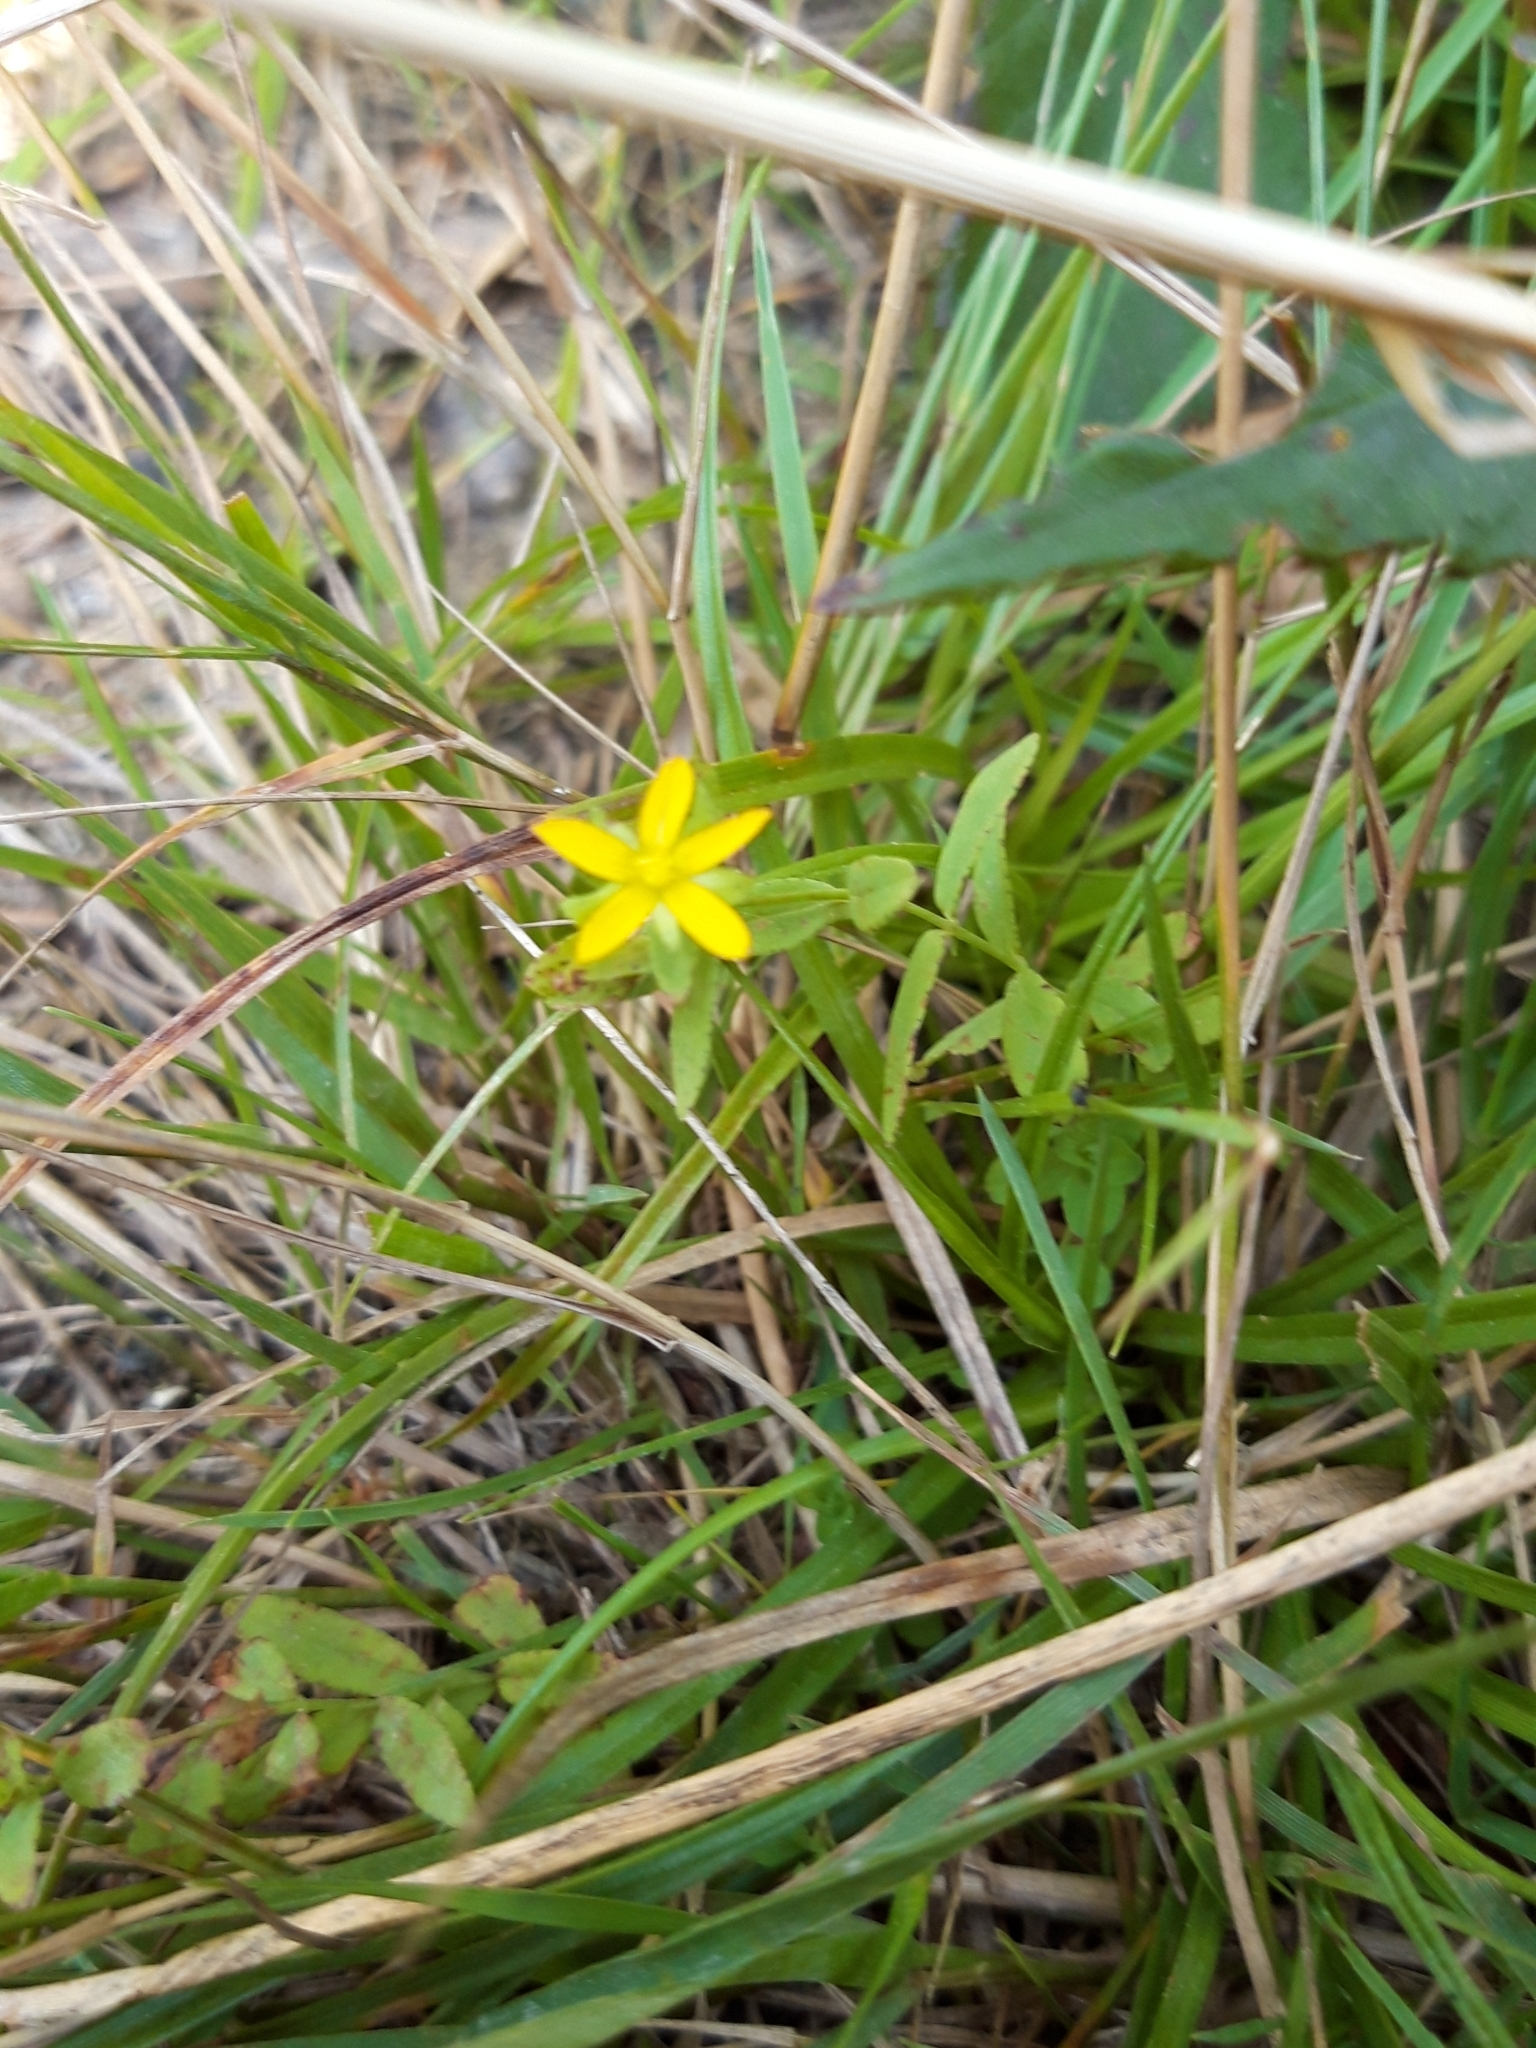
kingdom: Plantae
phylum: Tracheophyta
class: Magnoliopsida
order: Malpighiales
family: Hypericaceae
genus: Hypericum
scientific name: Hypericum humifusum
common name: Trailing st. john's-wort
